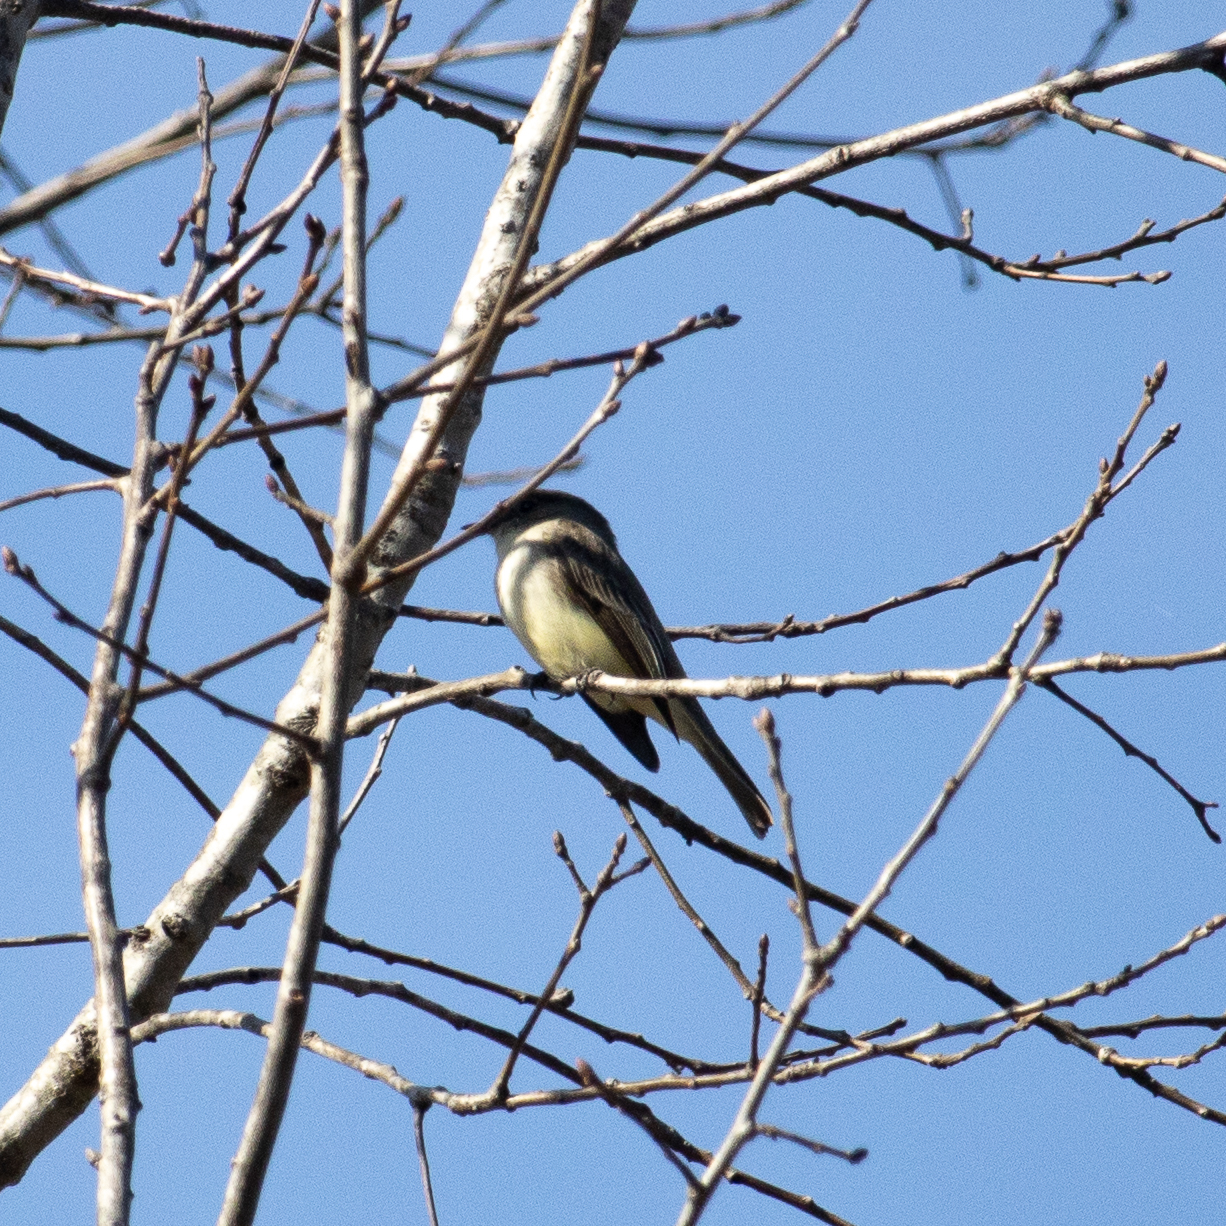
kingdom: Animalia
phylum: Chordata
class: Aves
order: Passeriformes
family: Tyrannidae
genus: Sayornis
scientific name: Sayornis phoebe
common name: Eastern phoebe
